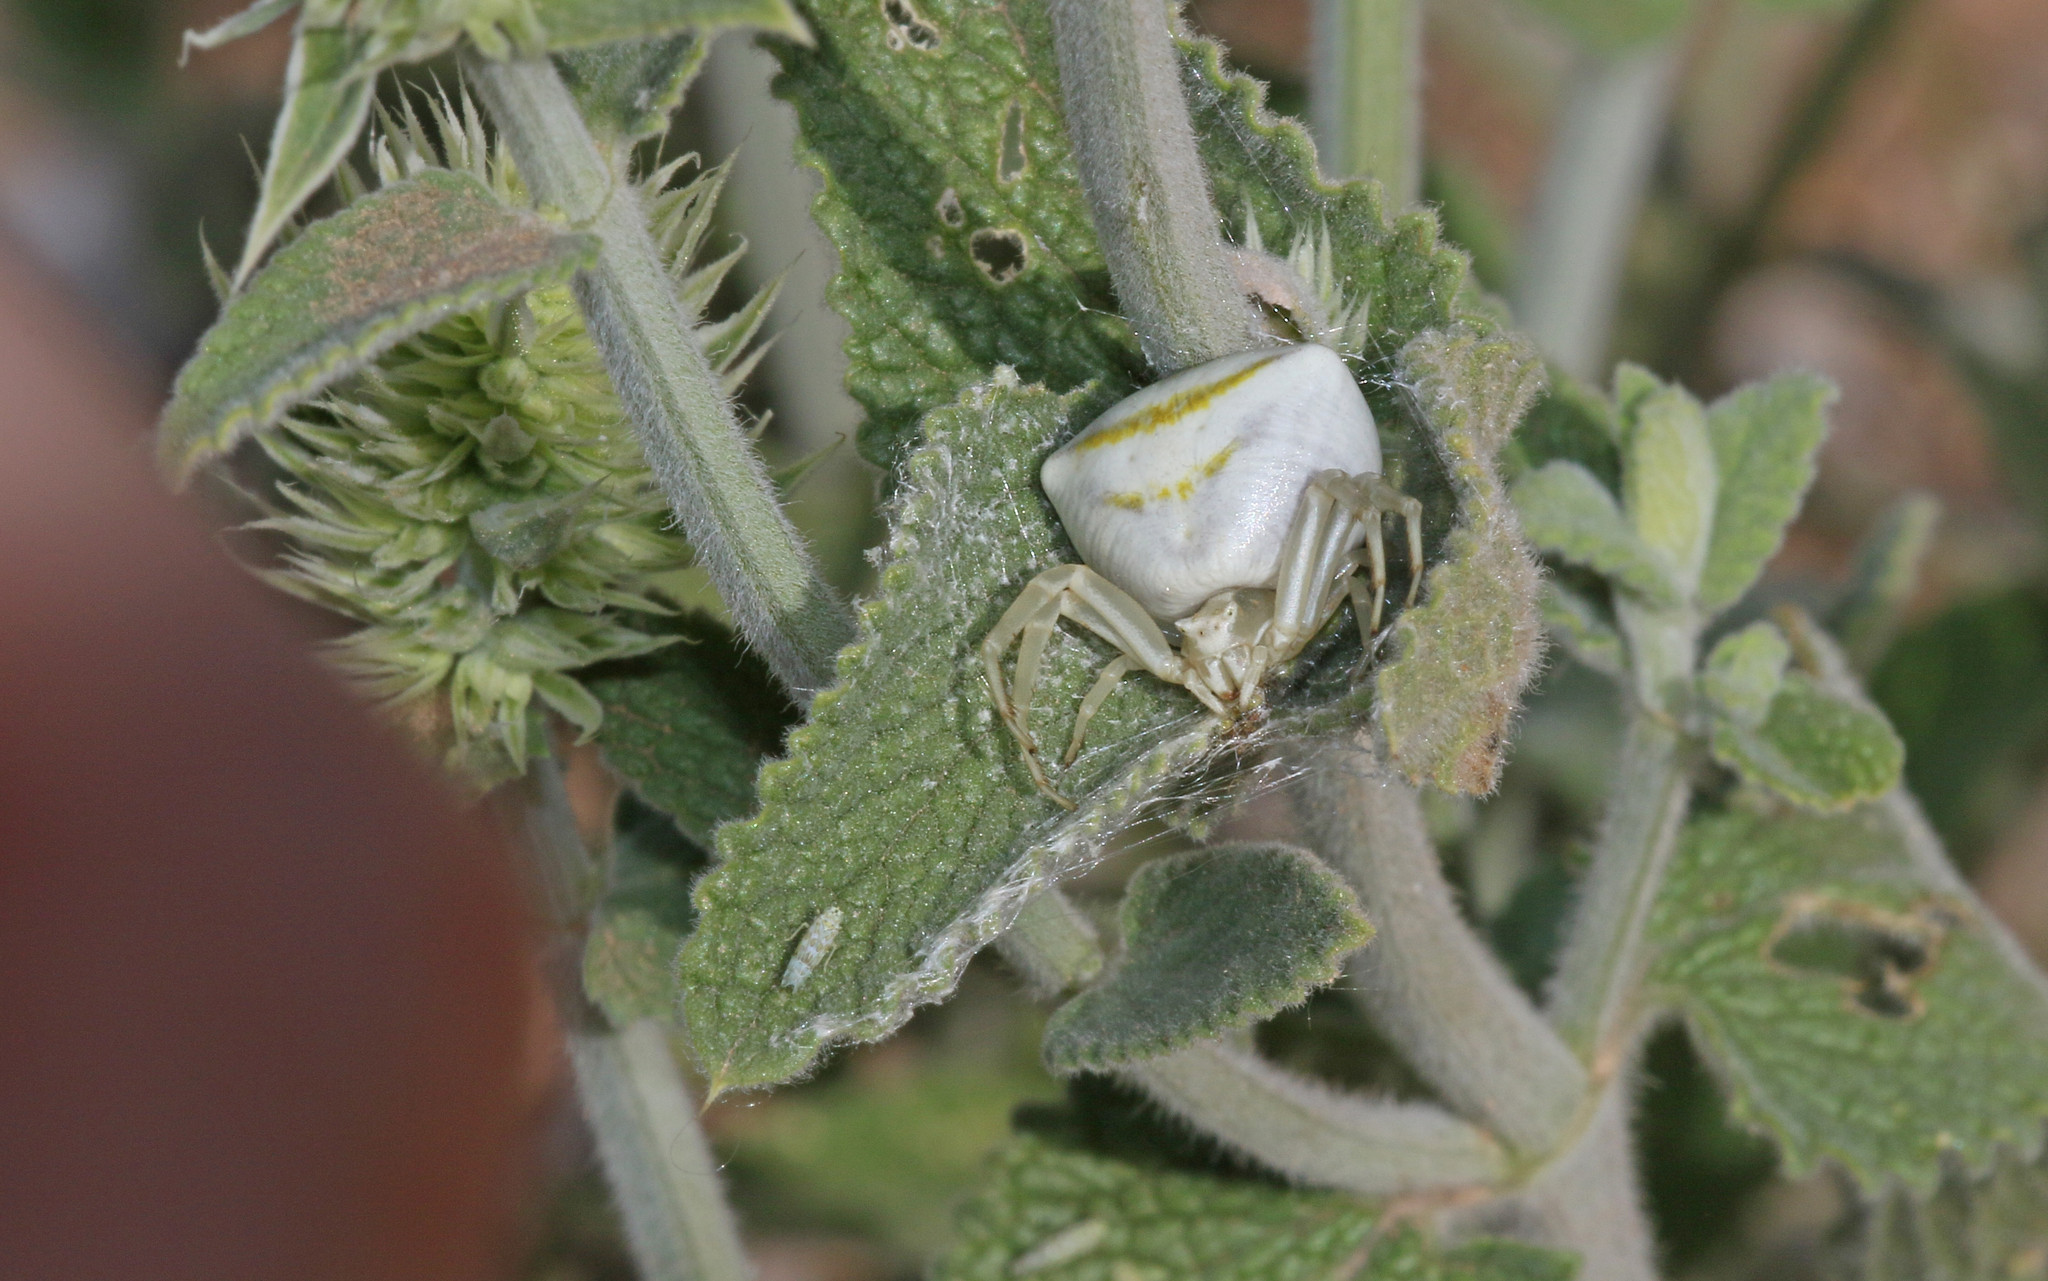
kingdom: Animalia
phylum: Arthropoda
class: Arachnida
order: Araneae
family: Thomisidae
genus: Thomisus
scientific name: Thomisus onustus
